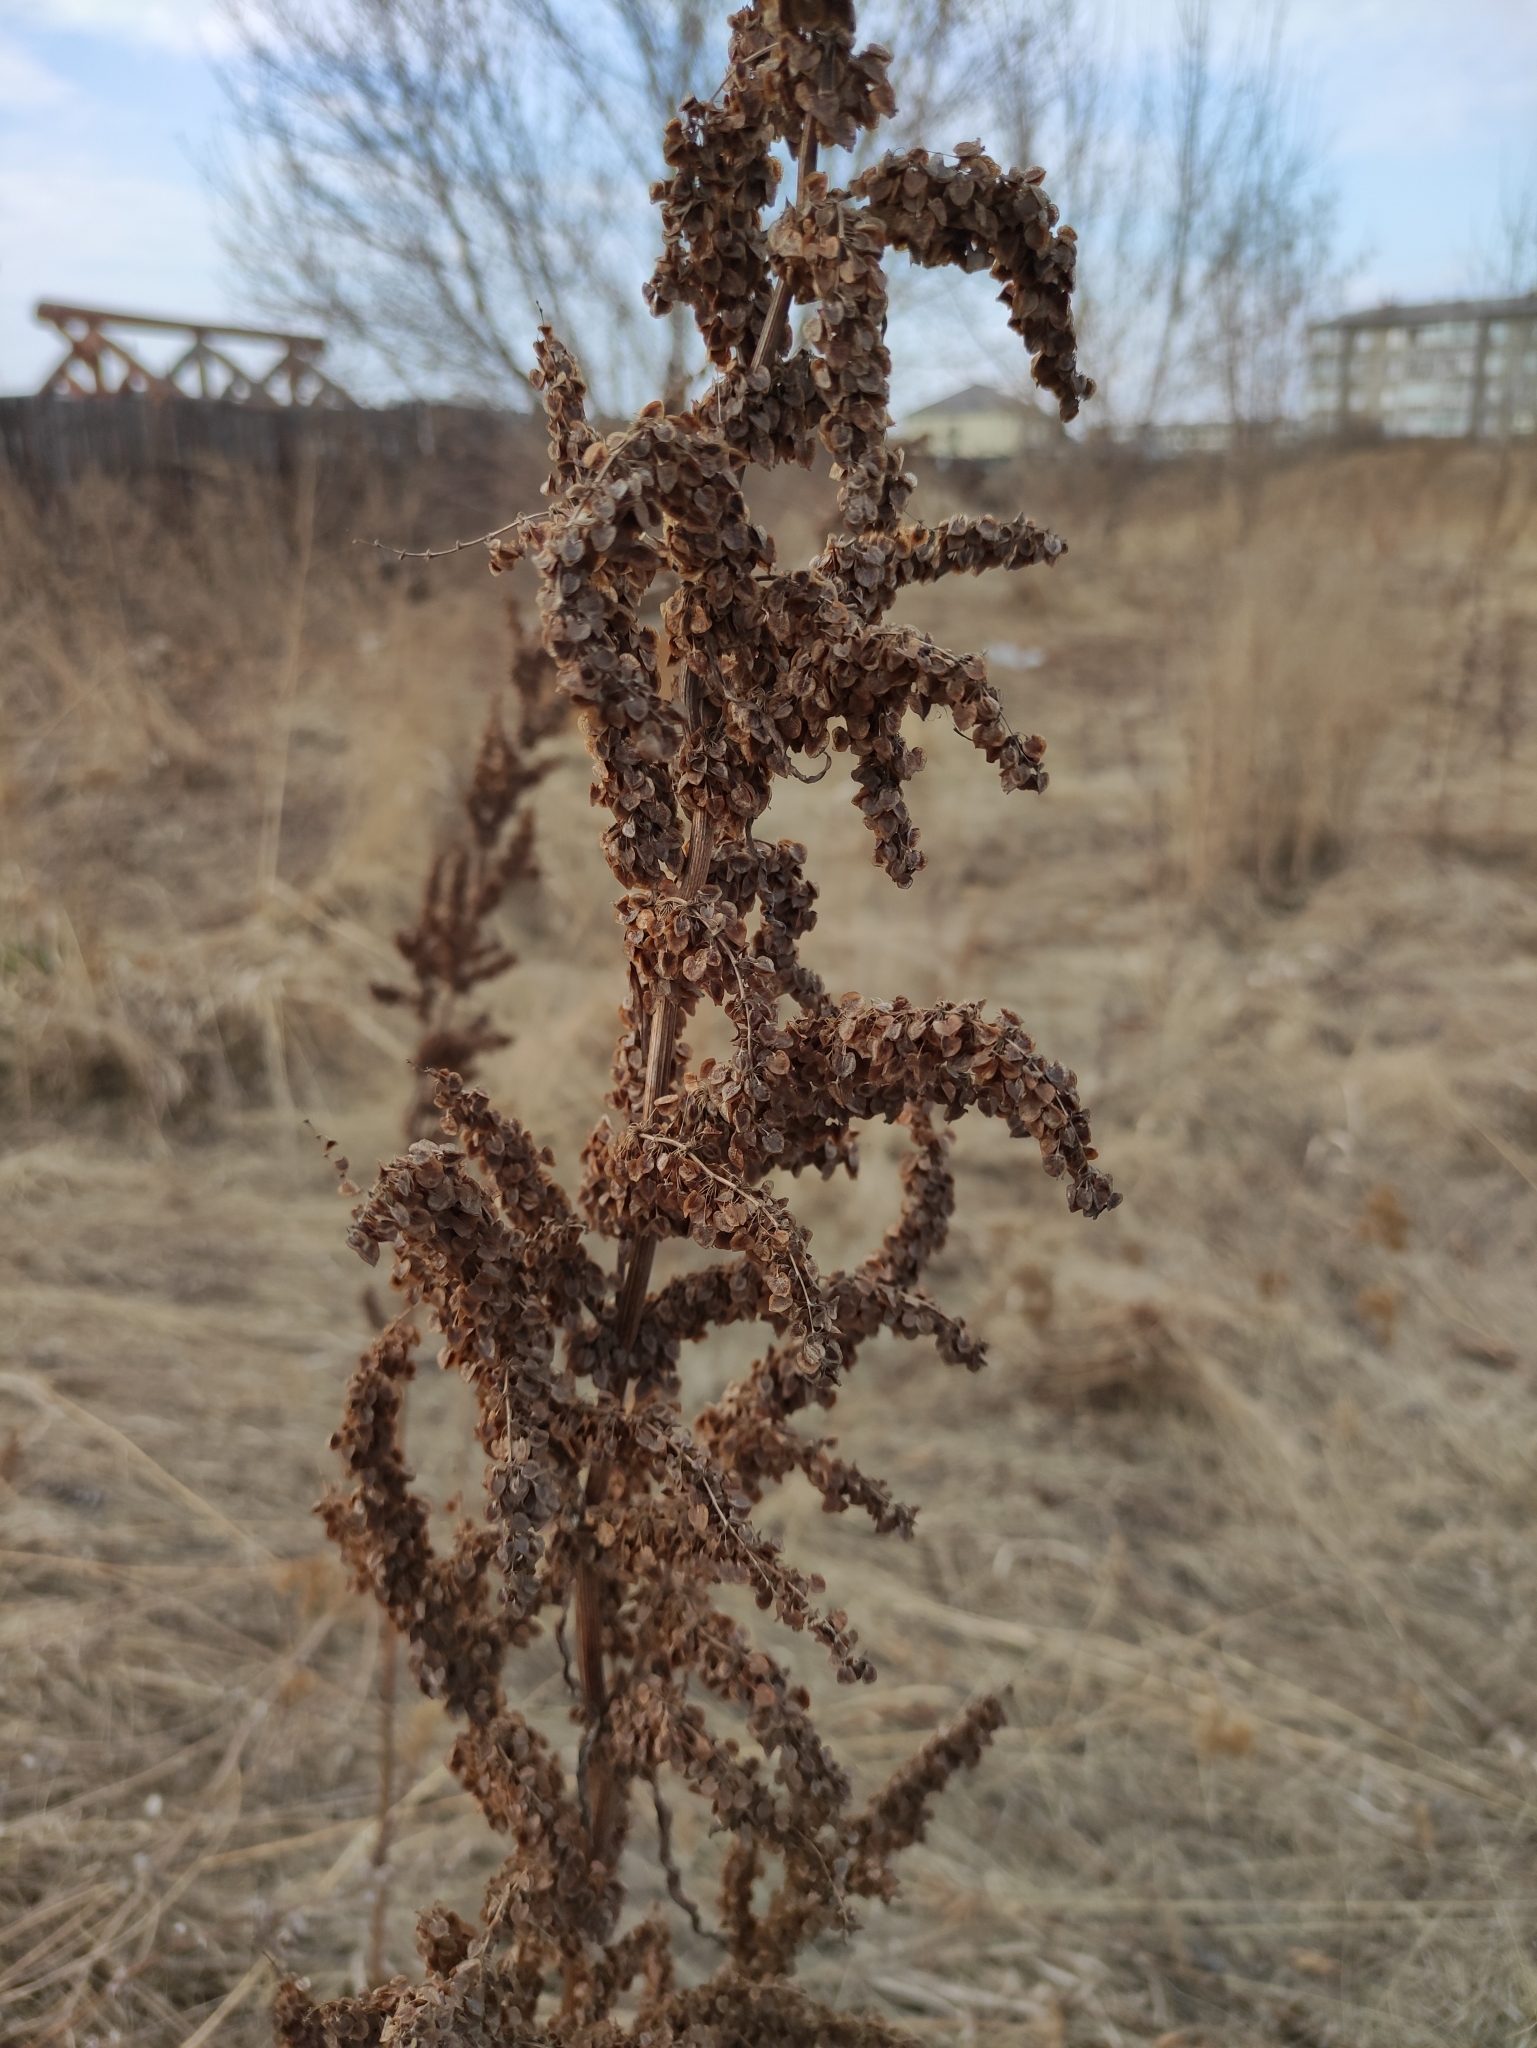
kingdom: Plantae
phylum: Tracheophyta
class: Magnoliopsida
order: Caryophyllales
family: Polygonaceae
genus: Rumex
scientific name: Rumex pseudonatronatus
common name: Field dock
